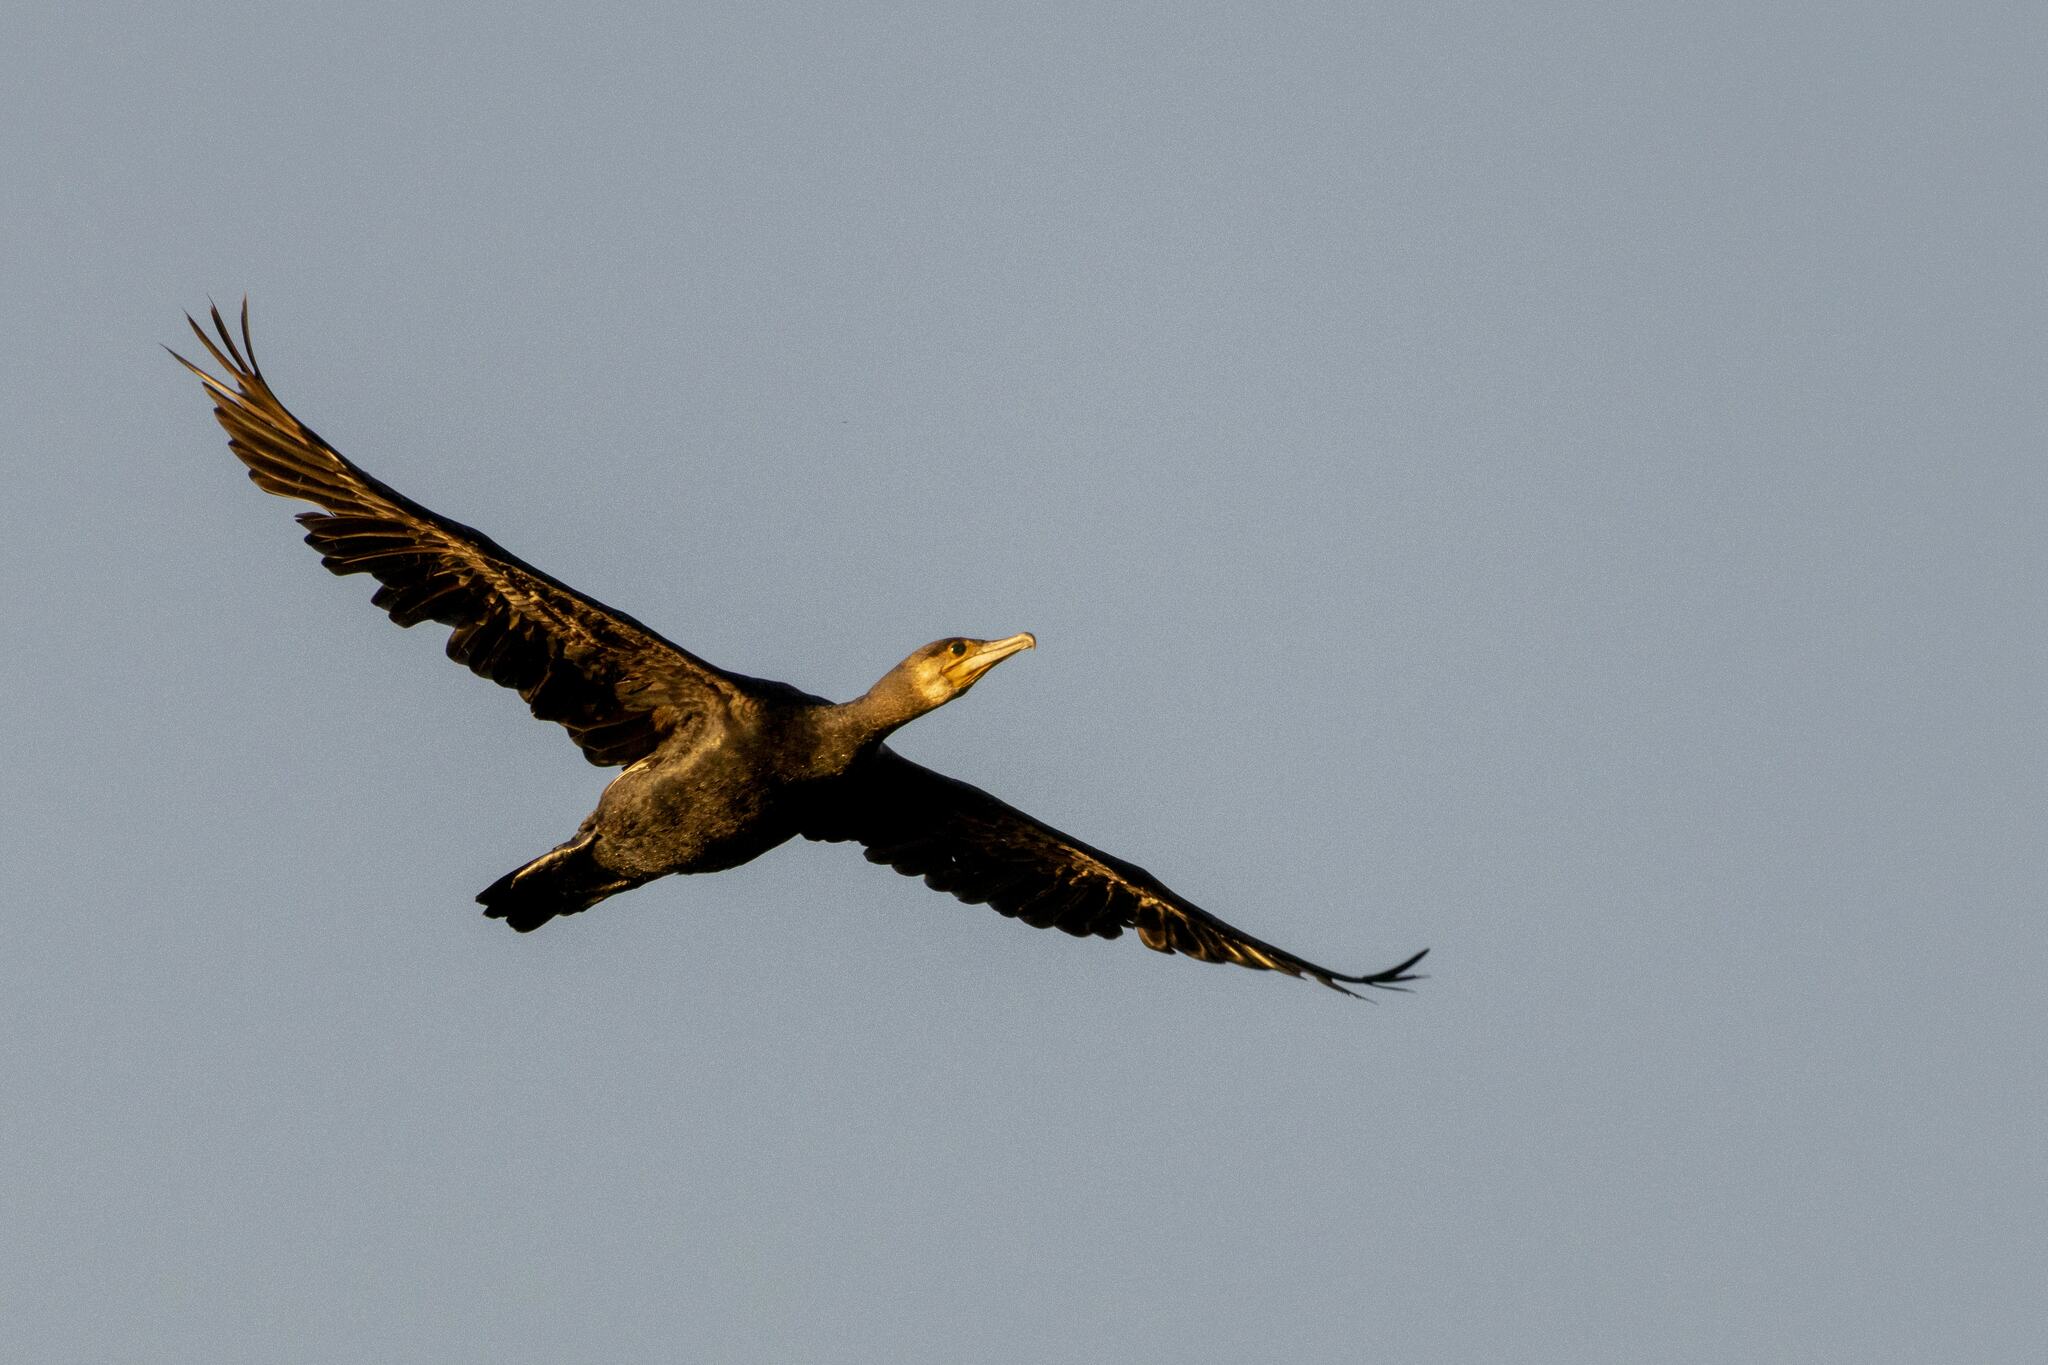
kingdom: Animalia
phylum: Chordata
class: Aves
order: Suliformes
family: Phalacrocoracidae
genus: Phalacrocorax
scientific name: Phalacrocorax carbo
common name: Great cormorant
